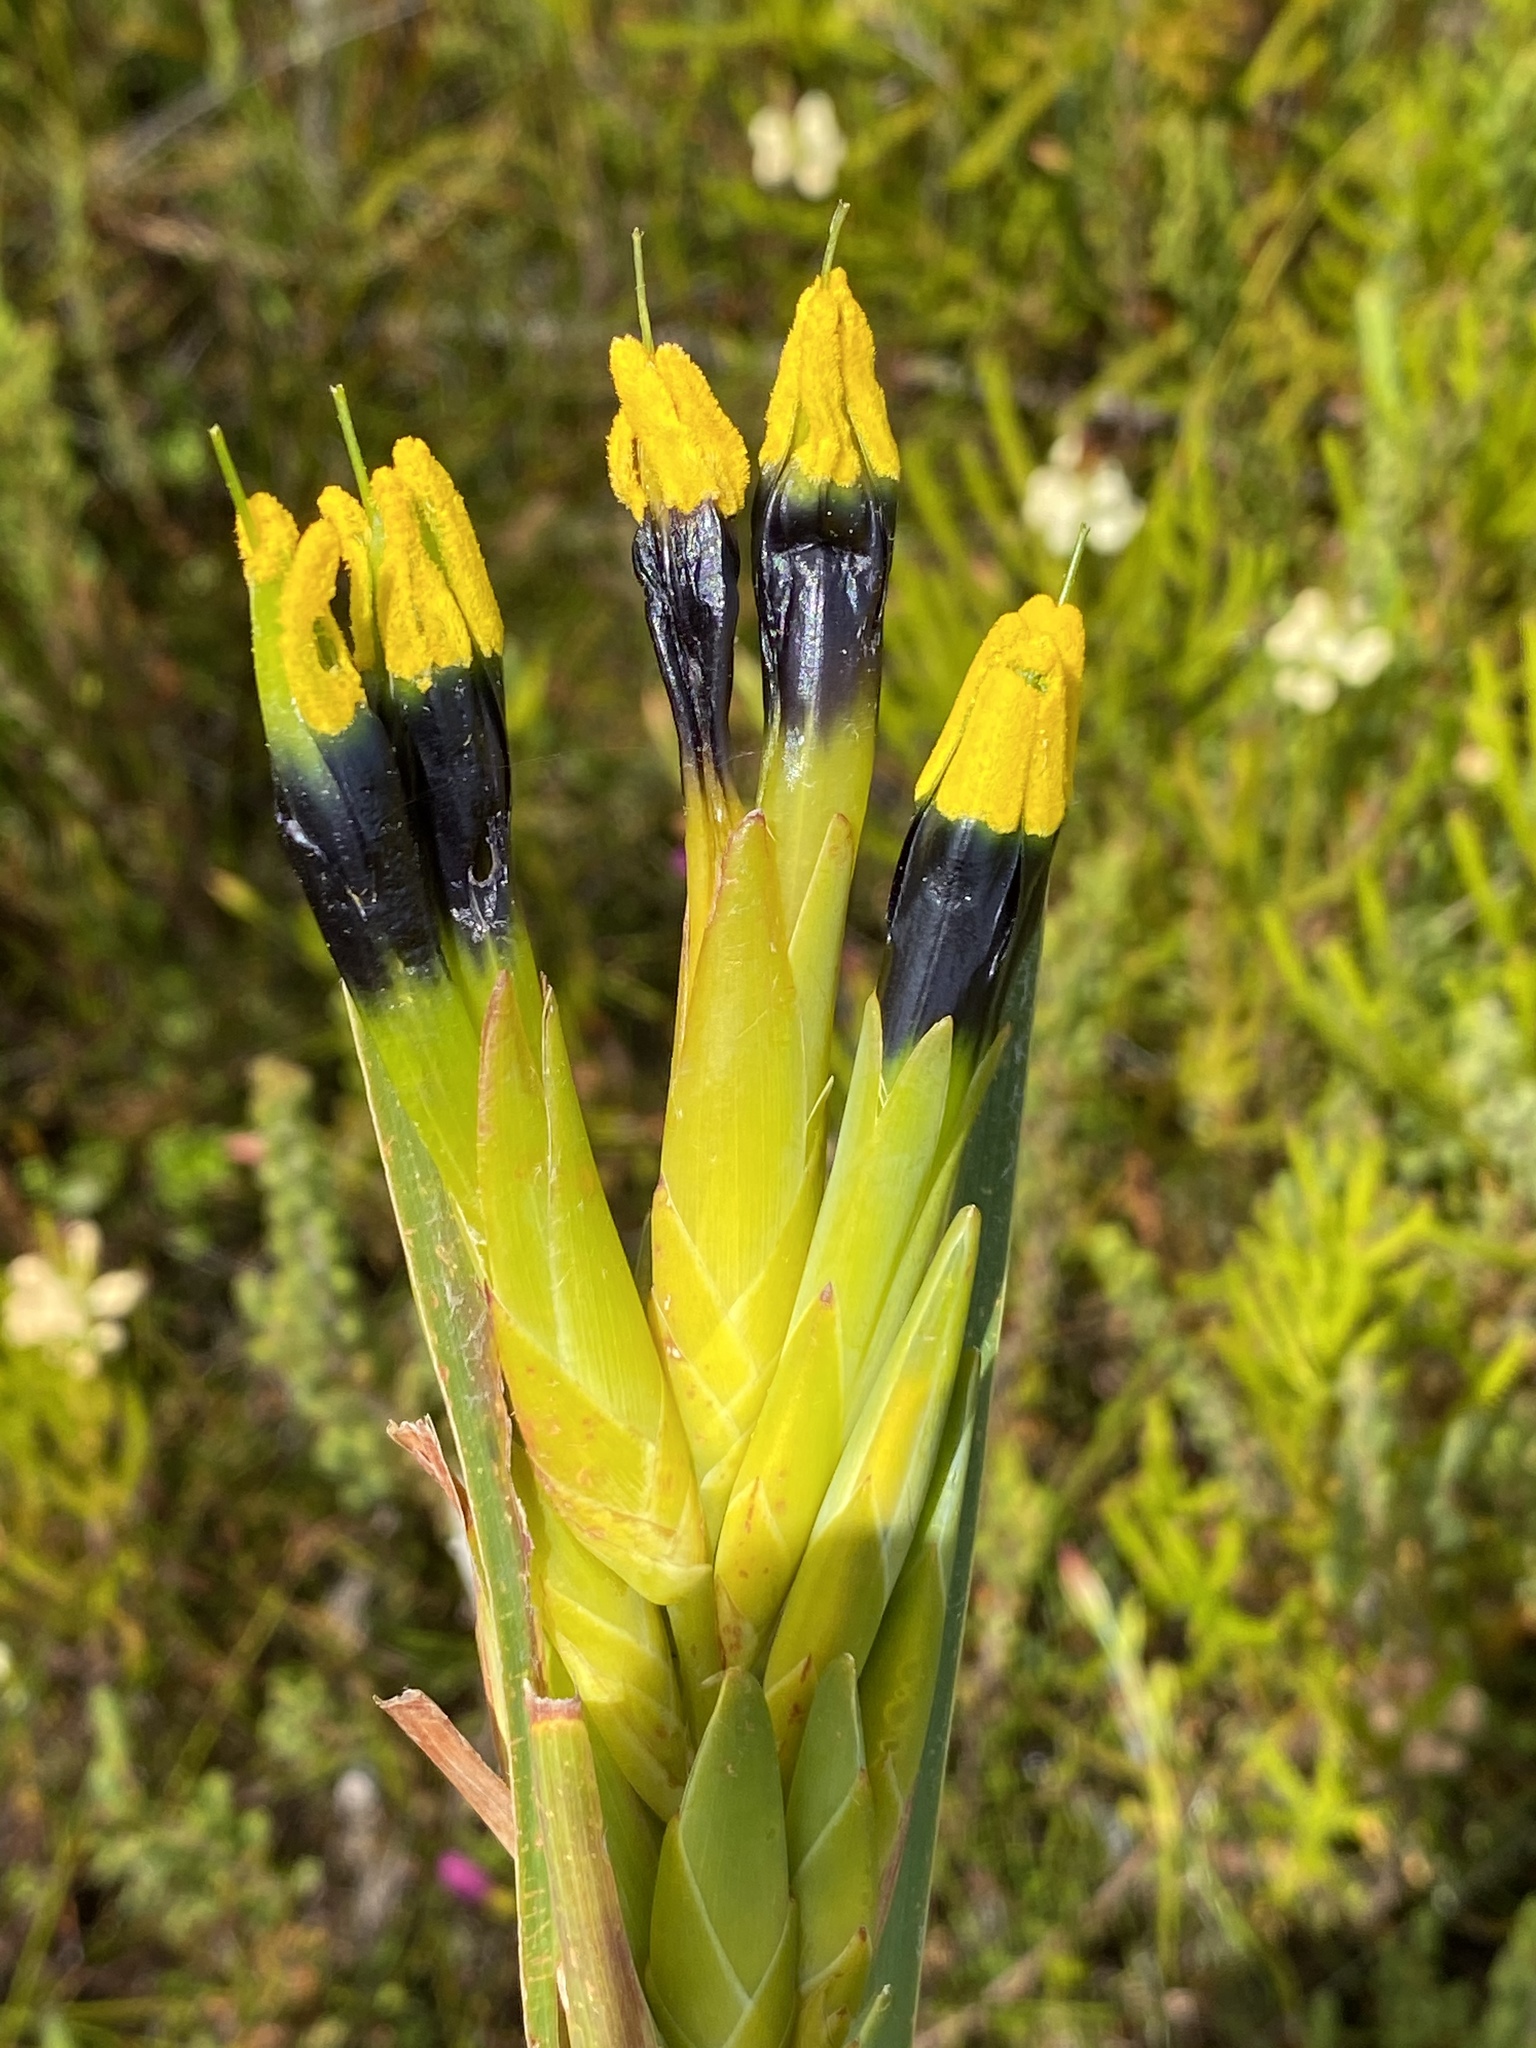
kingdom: Plantae
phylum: Tracheophyta
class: Liliopsida
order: Asparagales
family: Iridaceae
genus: Witsenia
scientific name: Witsenia maura
